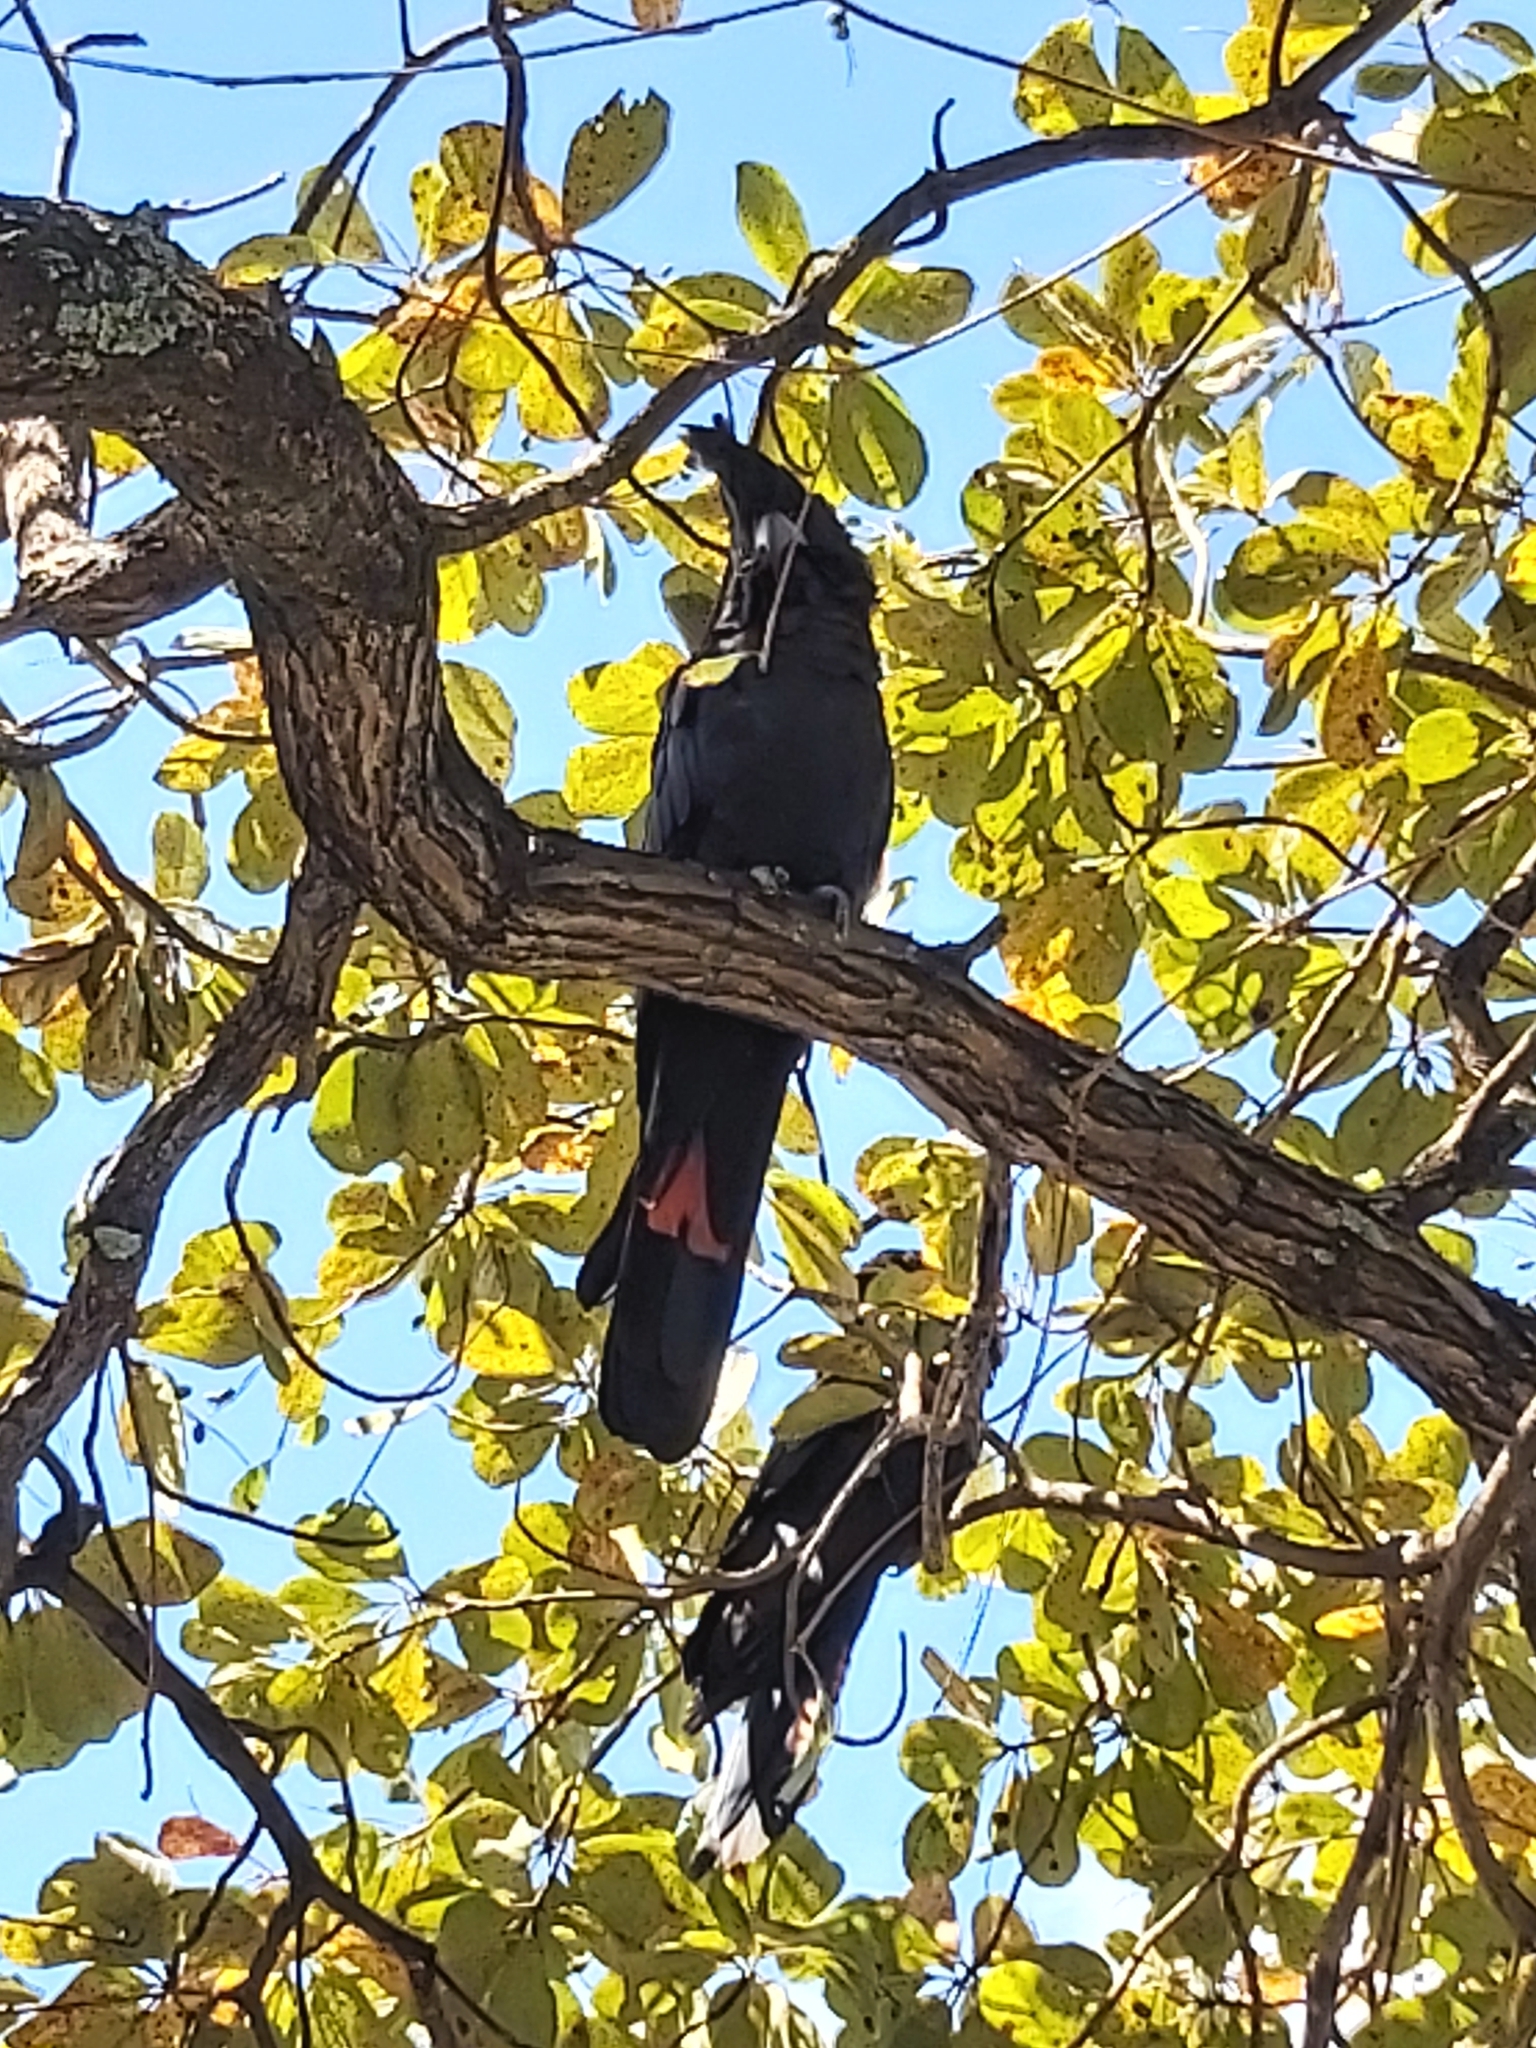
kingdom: Animalia
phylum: Chordata
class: Aves
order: Psittaciformes
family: Psittacidae
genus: Calyptorhynchus
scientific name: Calyptorhynchus banksii
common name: Red-tailed black cockatoo
